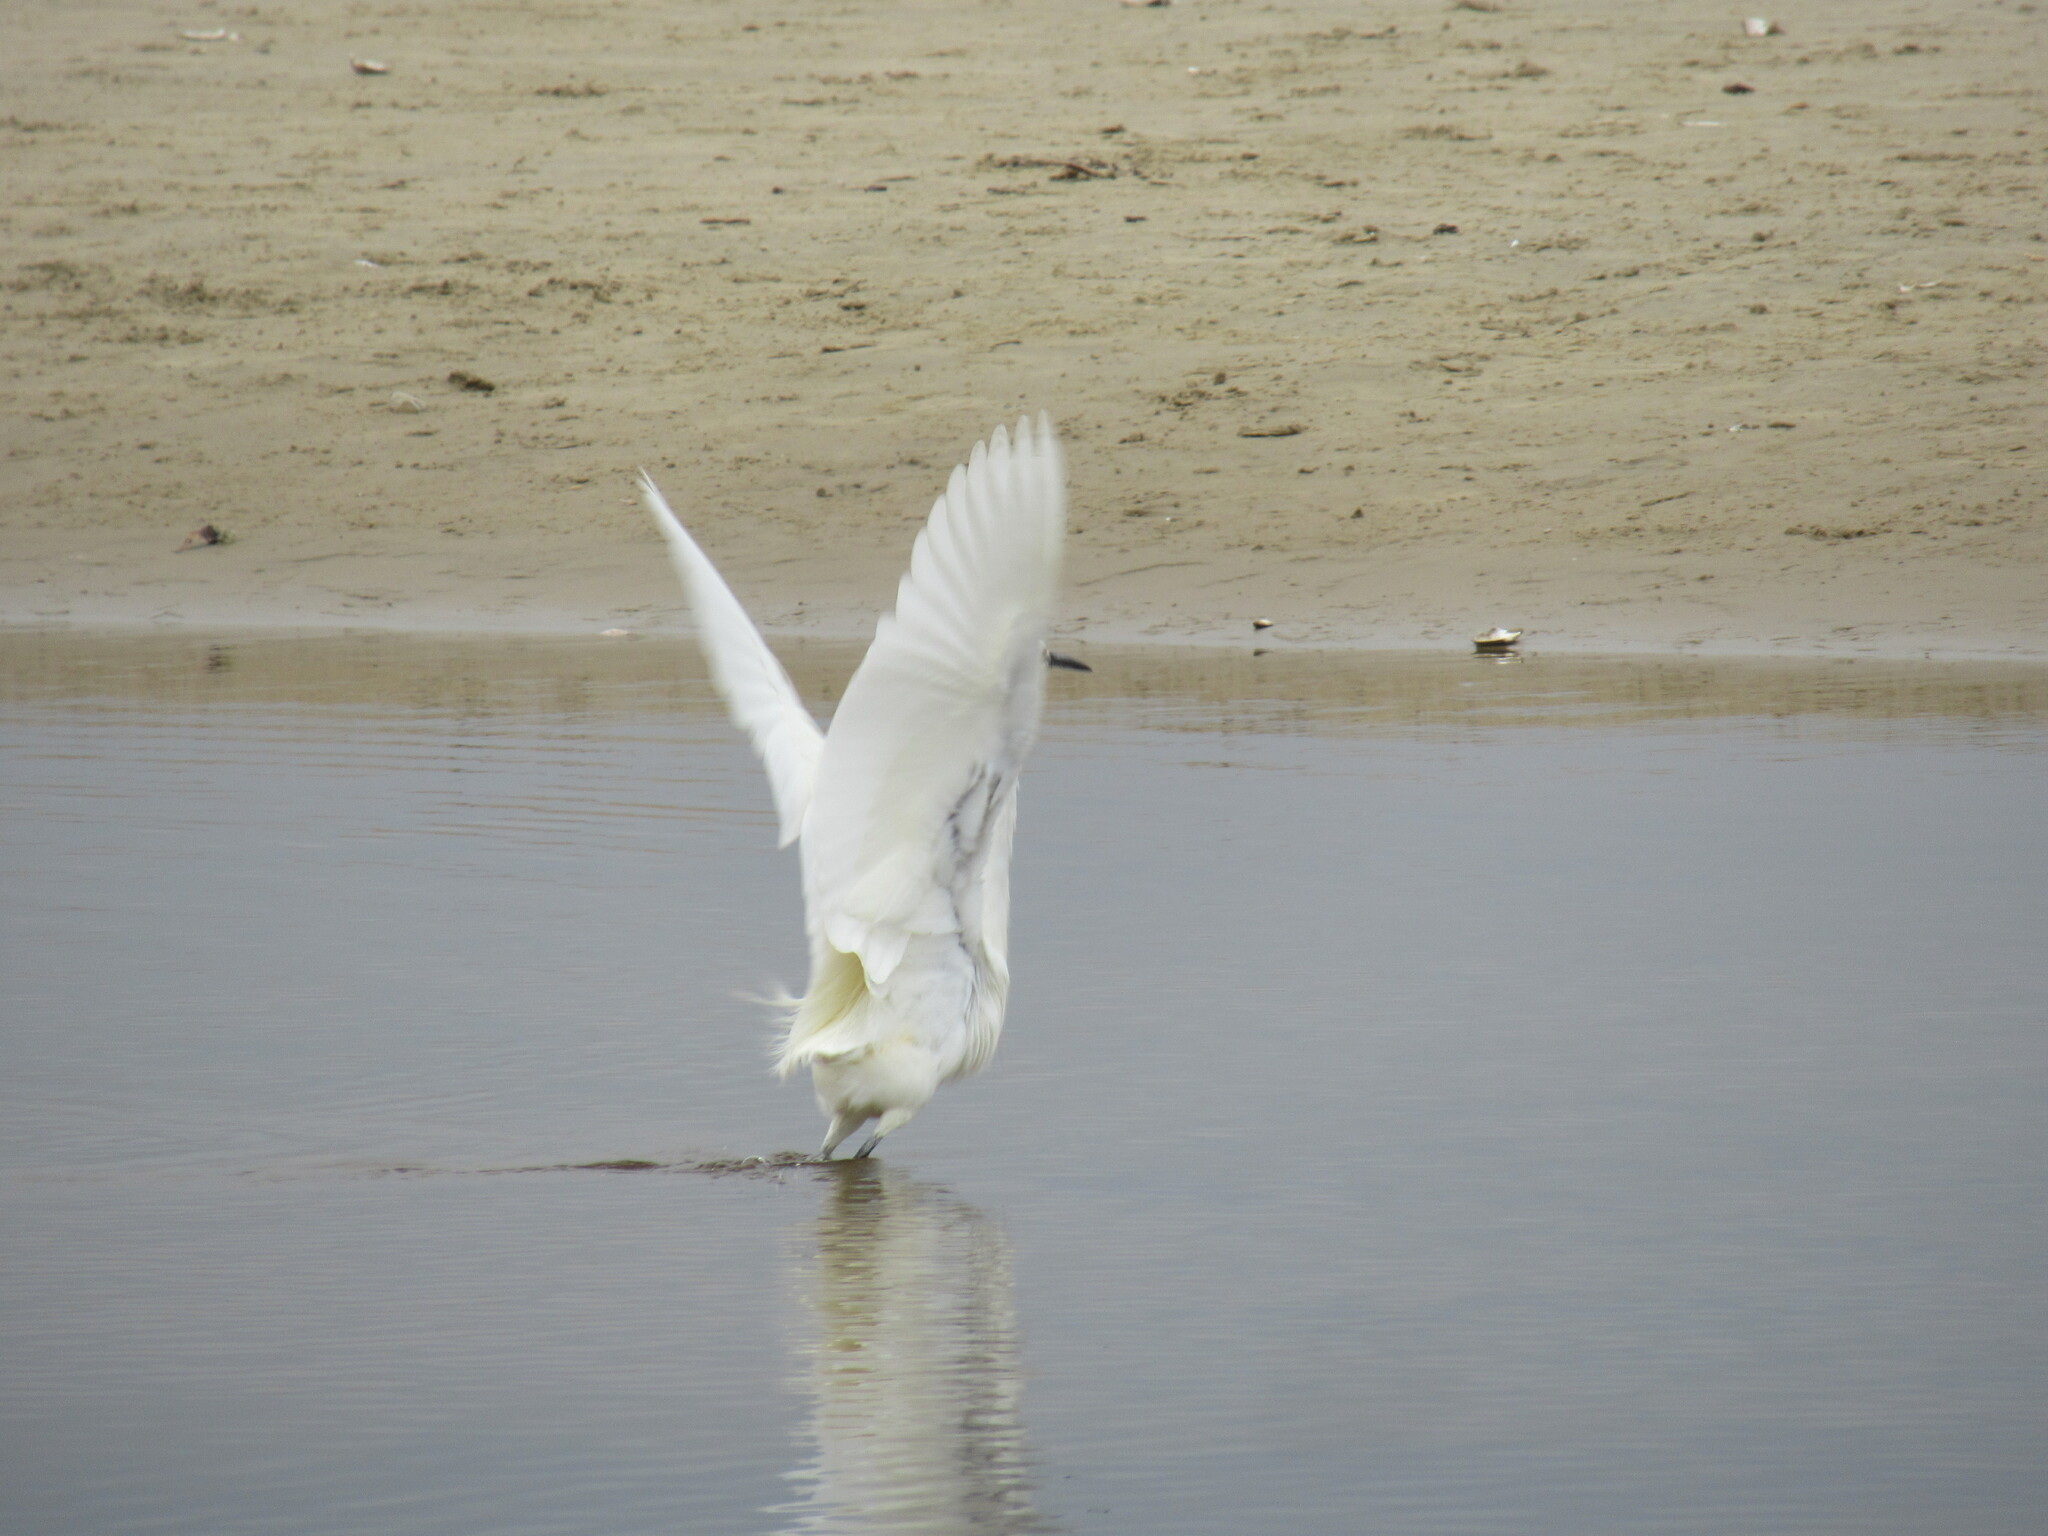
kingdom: Animalia
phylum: Chordata
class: Aves
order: Pelecaniformes
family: Ardeidae
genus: Egretta
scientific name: Egretta thula
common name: Snowy egret
